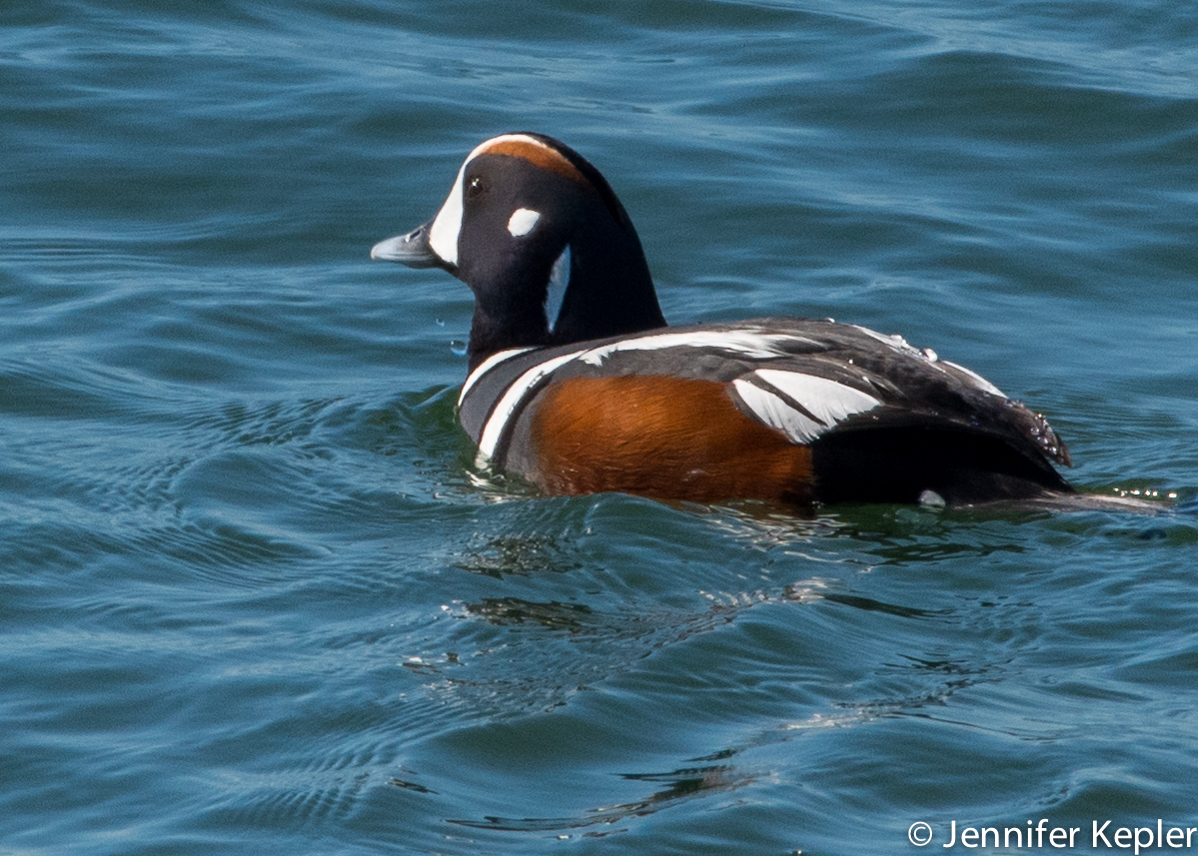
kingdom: Animalia
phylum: Chordata
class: Aves
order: Anseriformes
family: Anatidae
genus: Histrionicus
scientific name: Histrionicus histrionicus
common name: Harlequin duck
